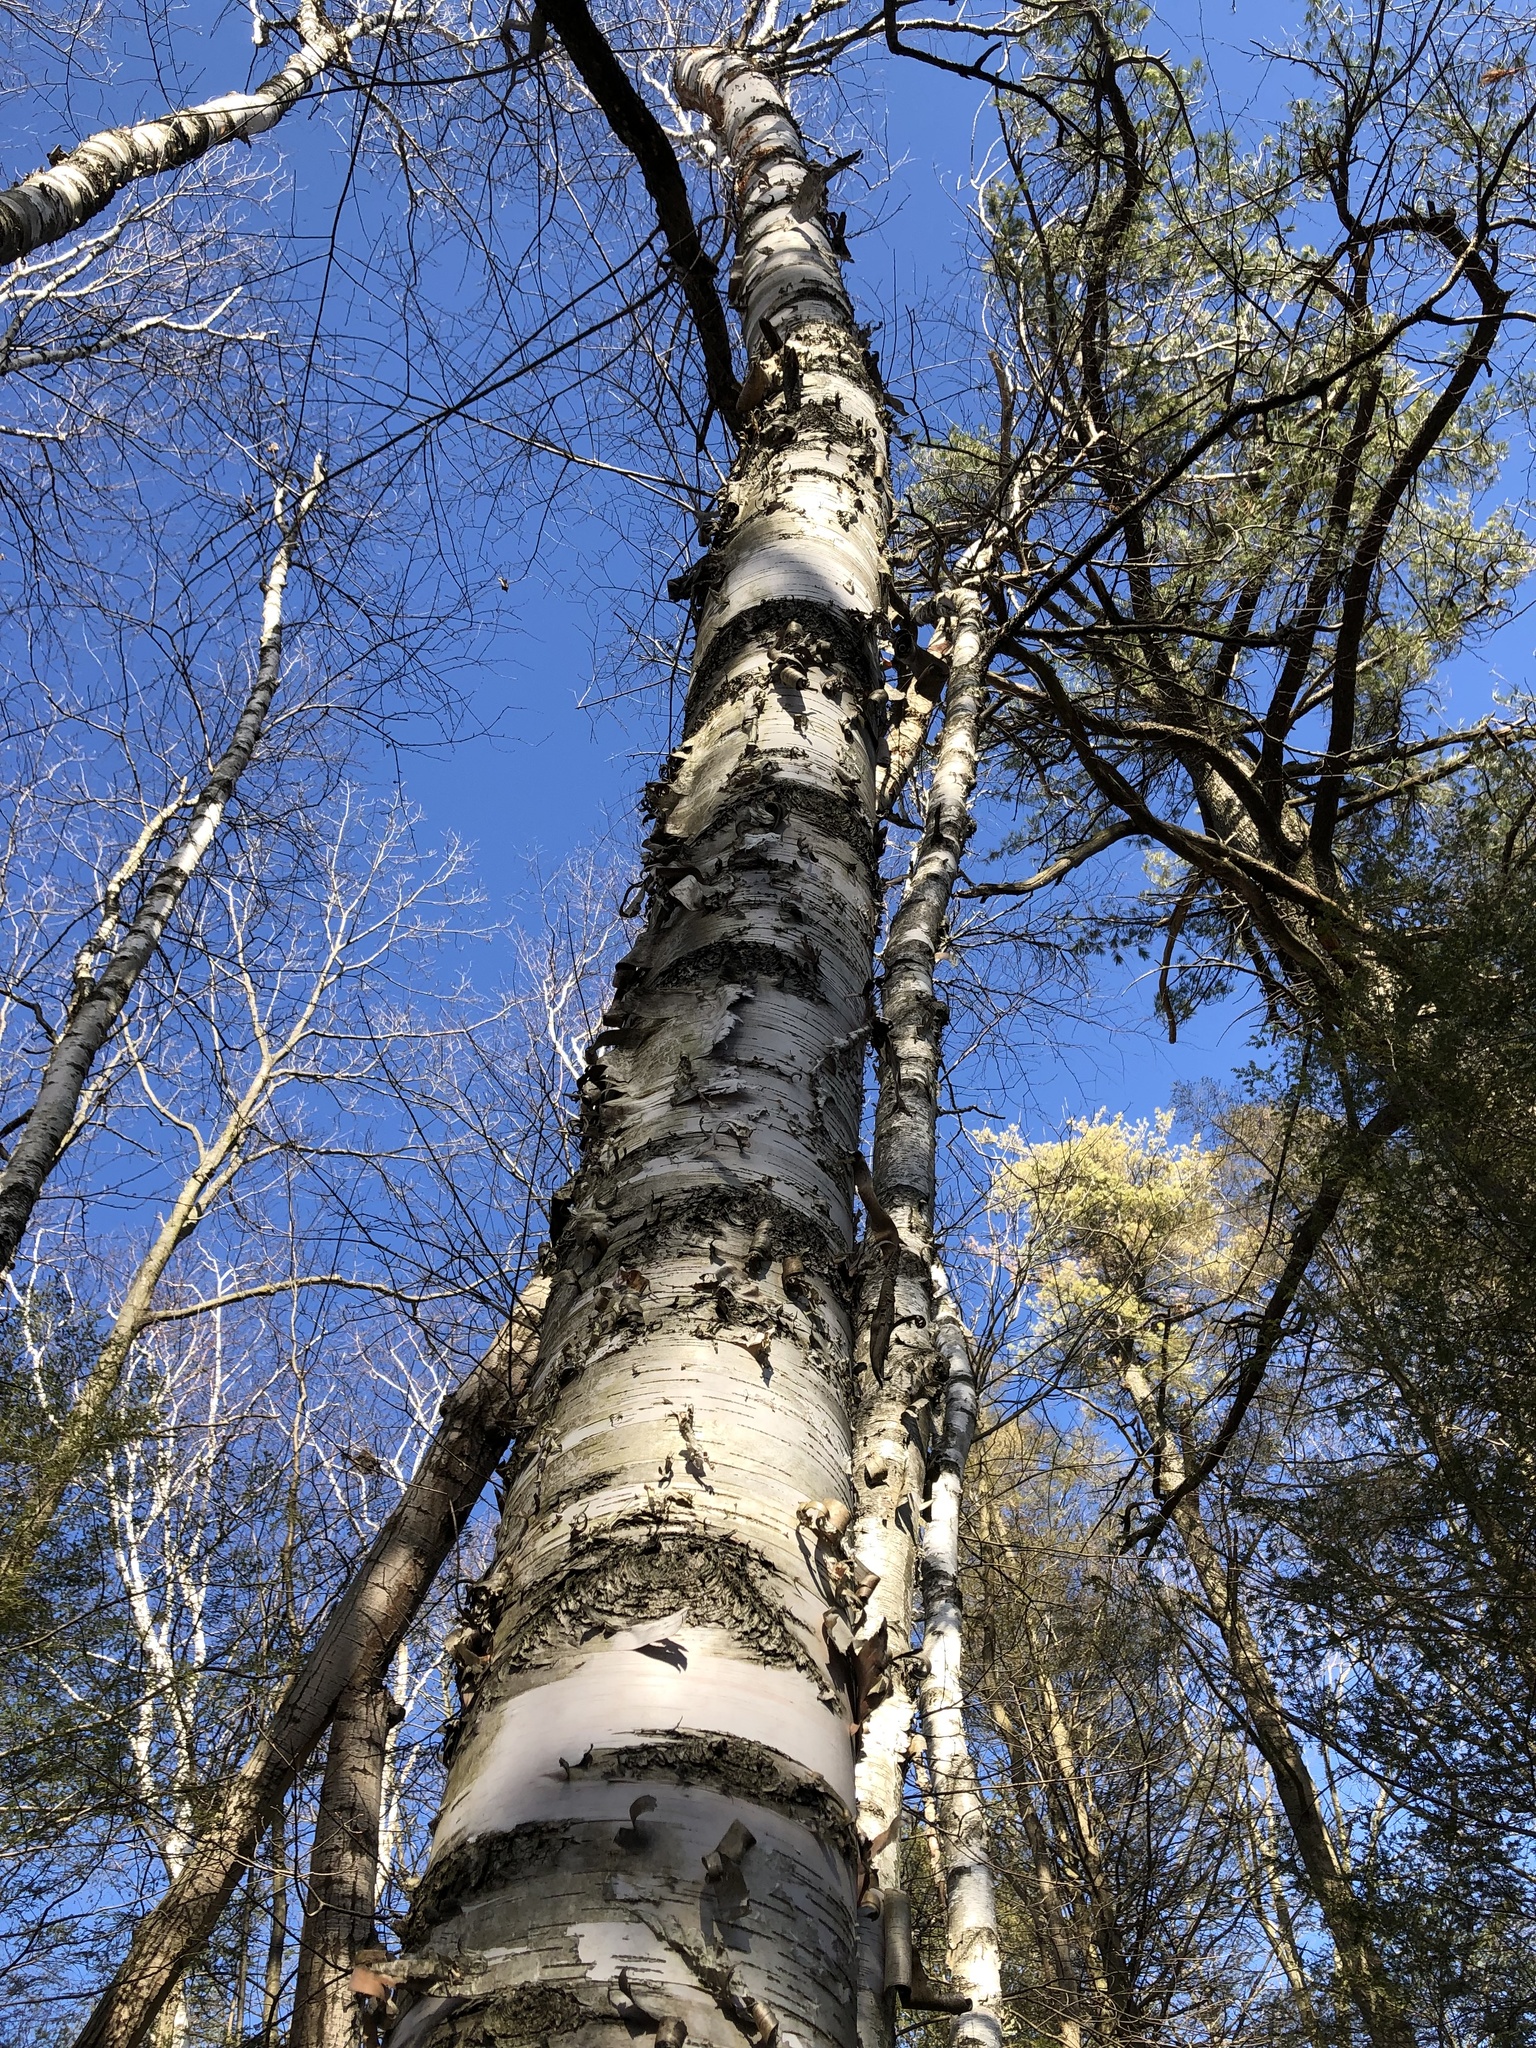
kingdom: Plantae
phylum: Tracheophyta
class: Magnoliopsida
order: Fagales
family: Betulaceae
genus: Betula
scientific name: Betula papyrifera
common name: Paper birch
